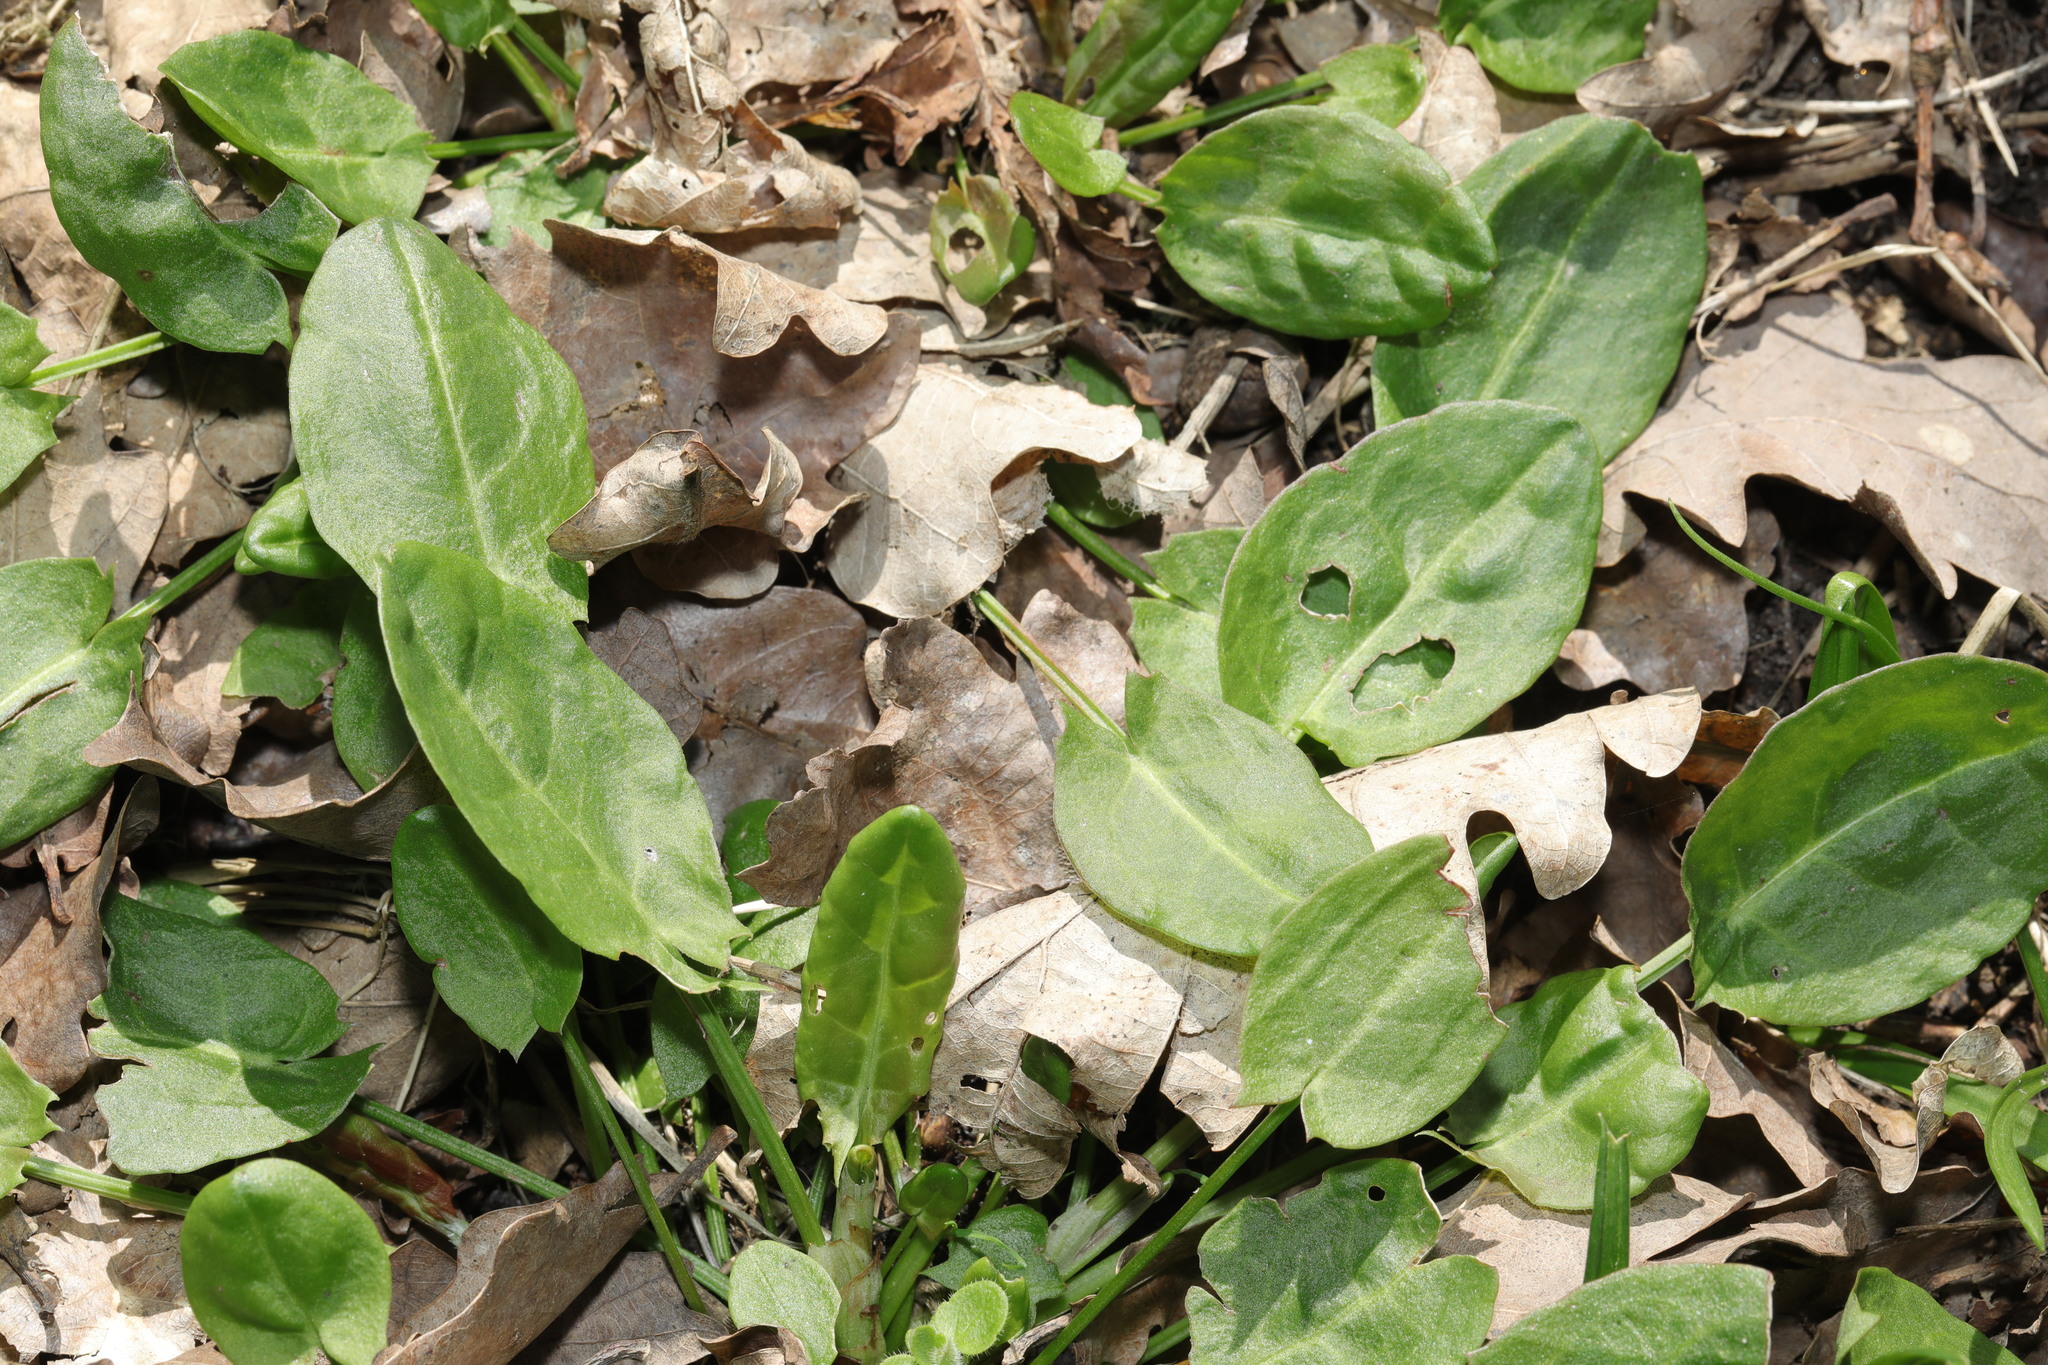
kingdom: Plantae
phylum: Tracheophyta
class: Magnoliopsida
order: Caryophyllales
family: Polygonaceae
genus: Rumex
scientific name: Rumex acetosa
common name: Garden sorrel
